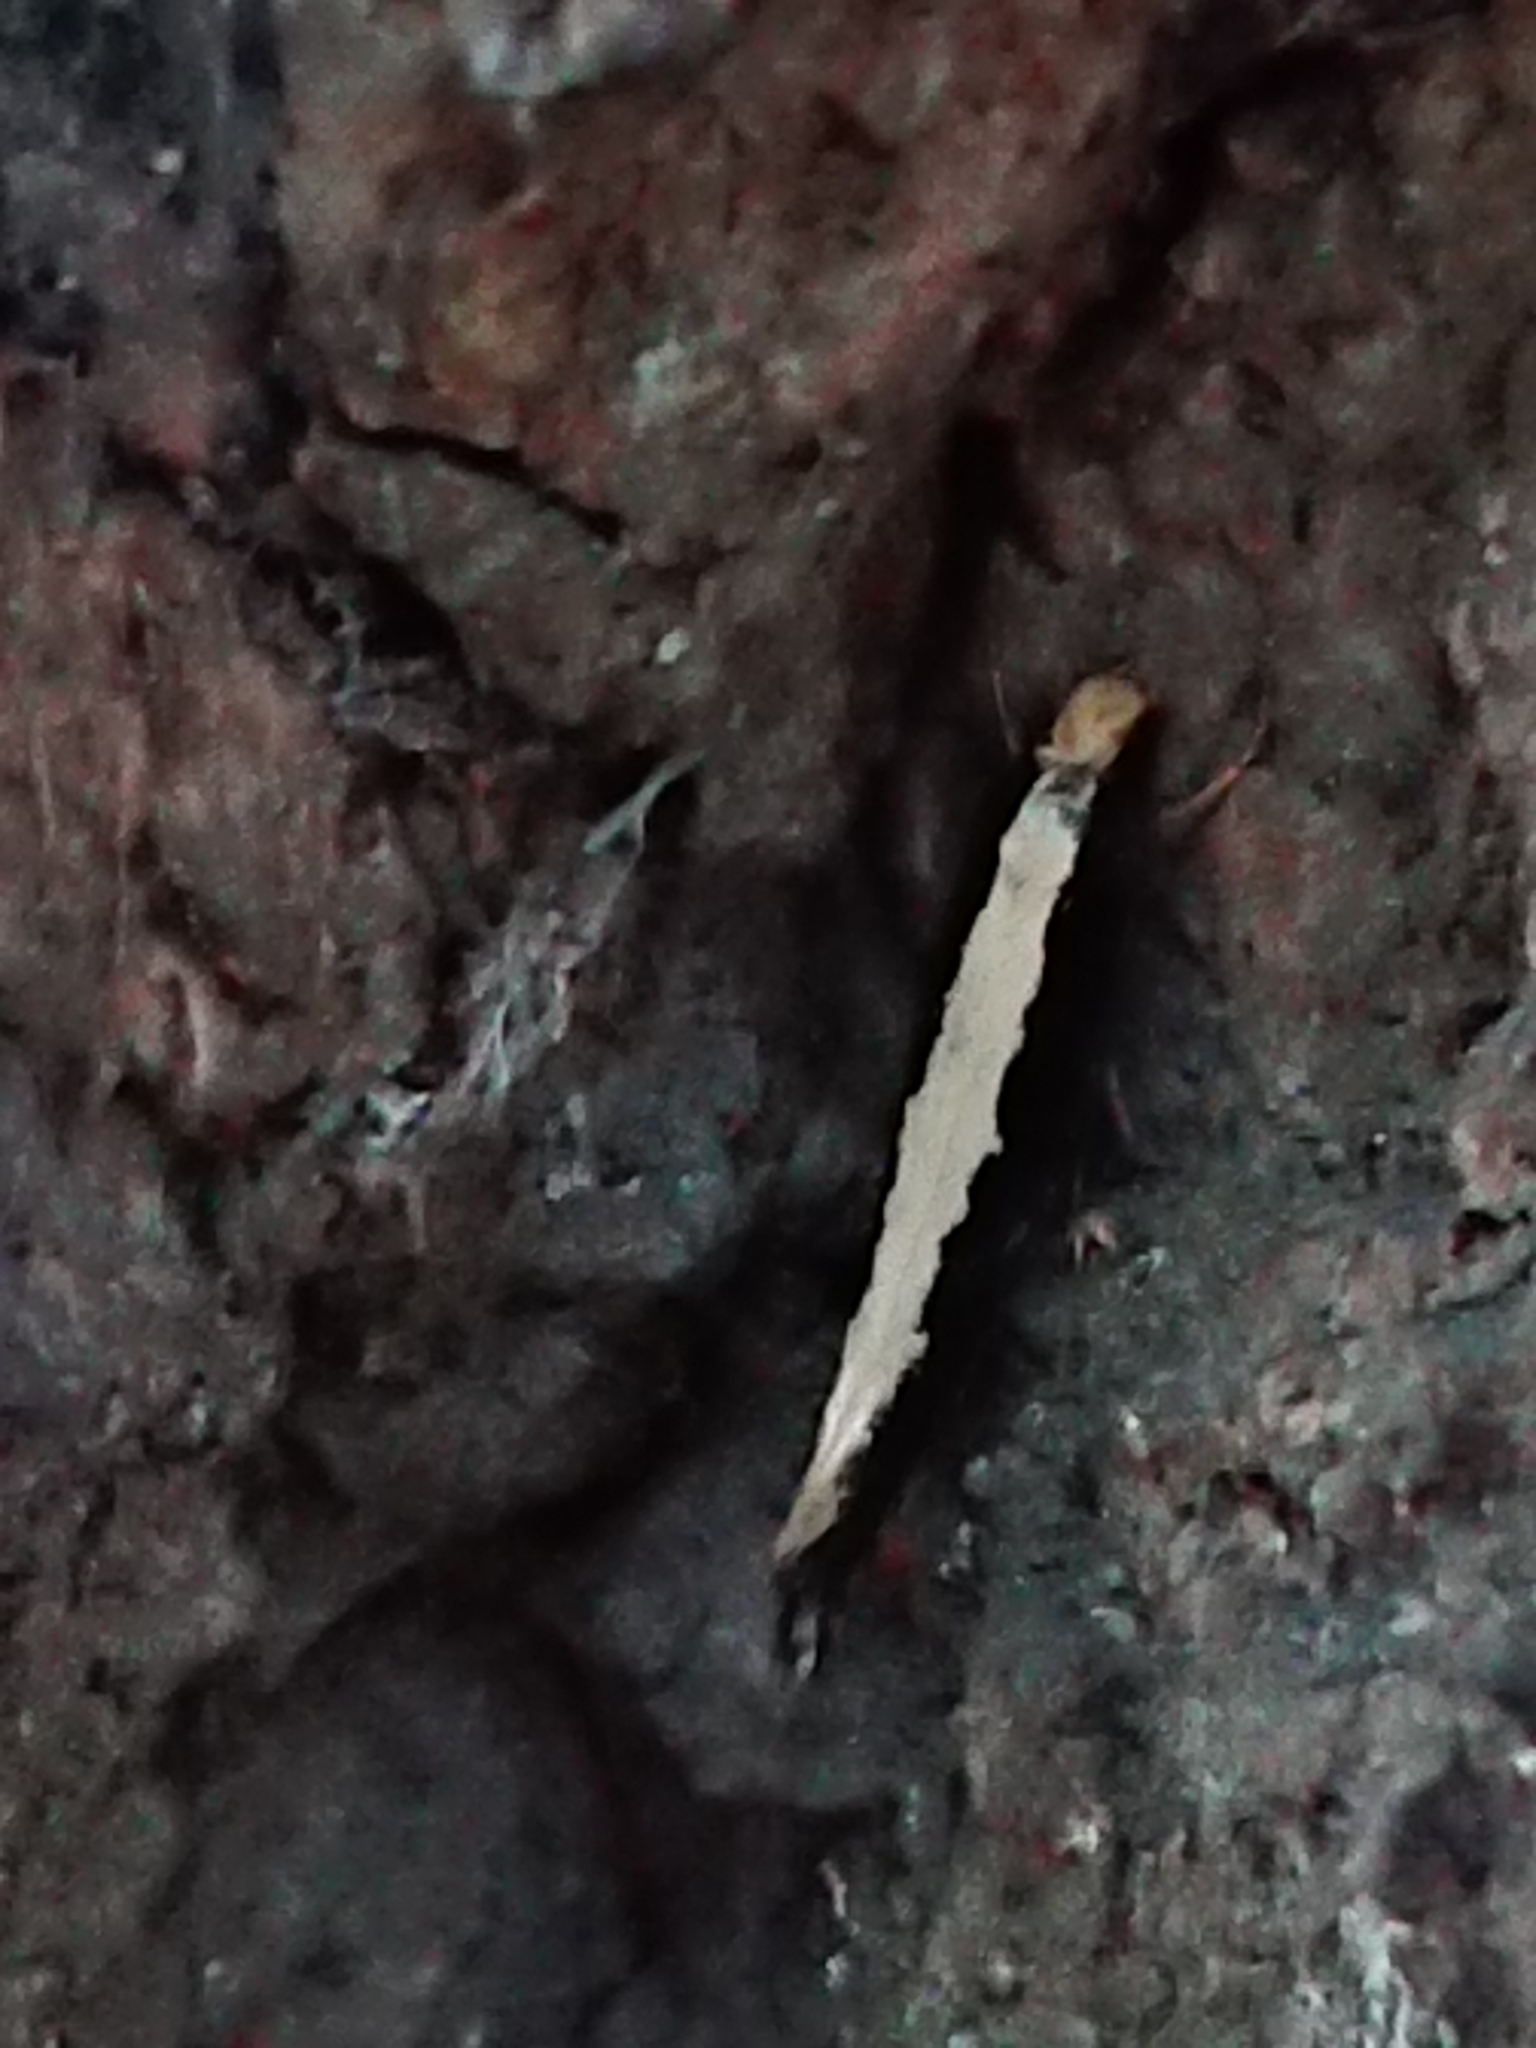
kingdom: Animalia
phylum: Arthropoda
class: Insecta
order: Lepidoptera
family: Tineidae
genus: Monopis
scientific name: Monopis ethelella
